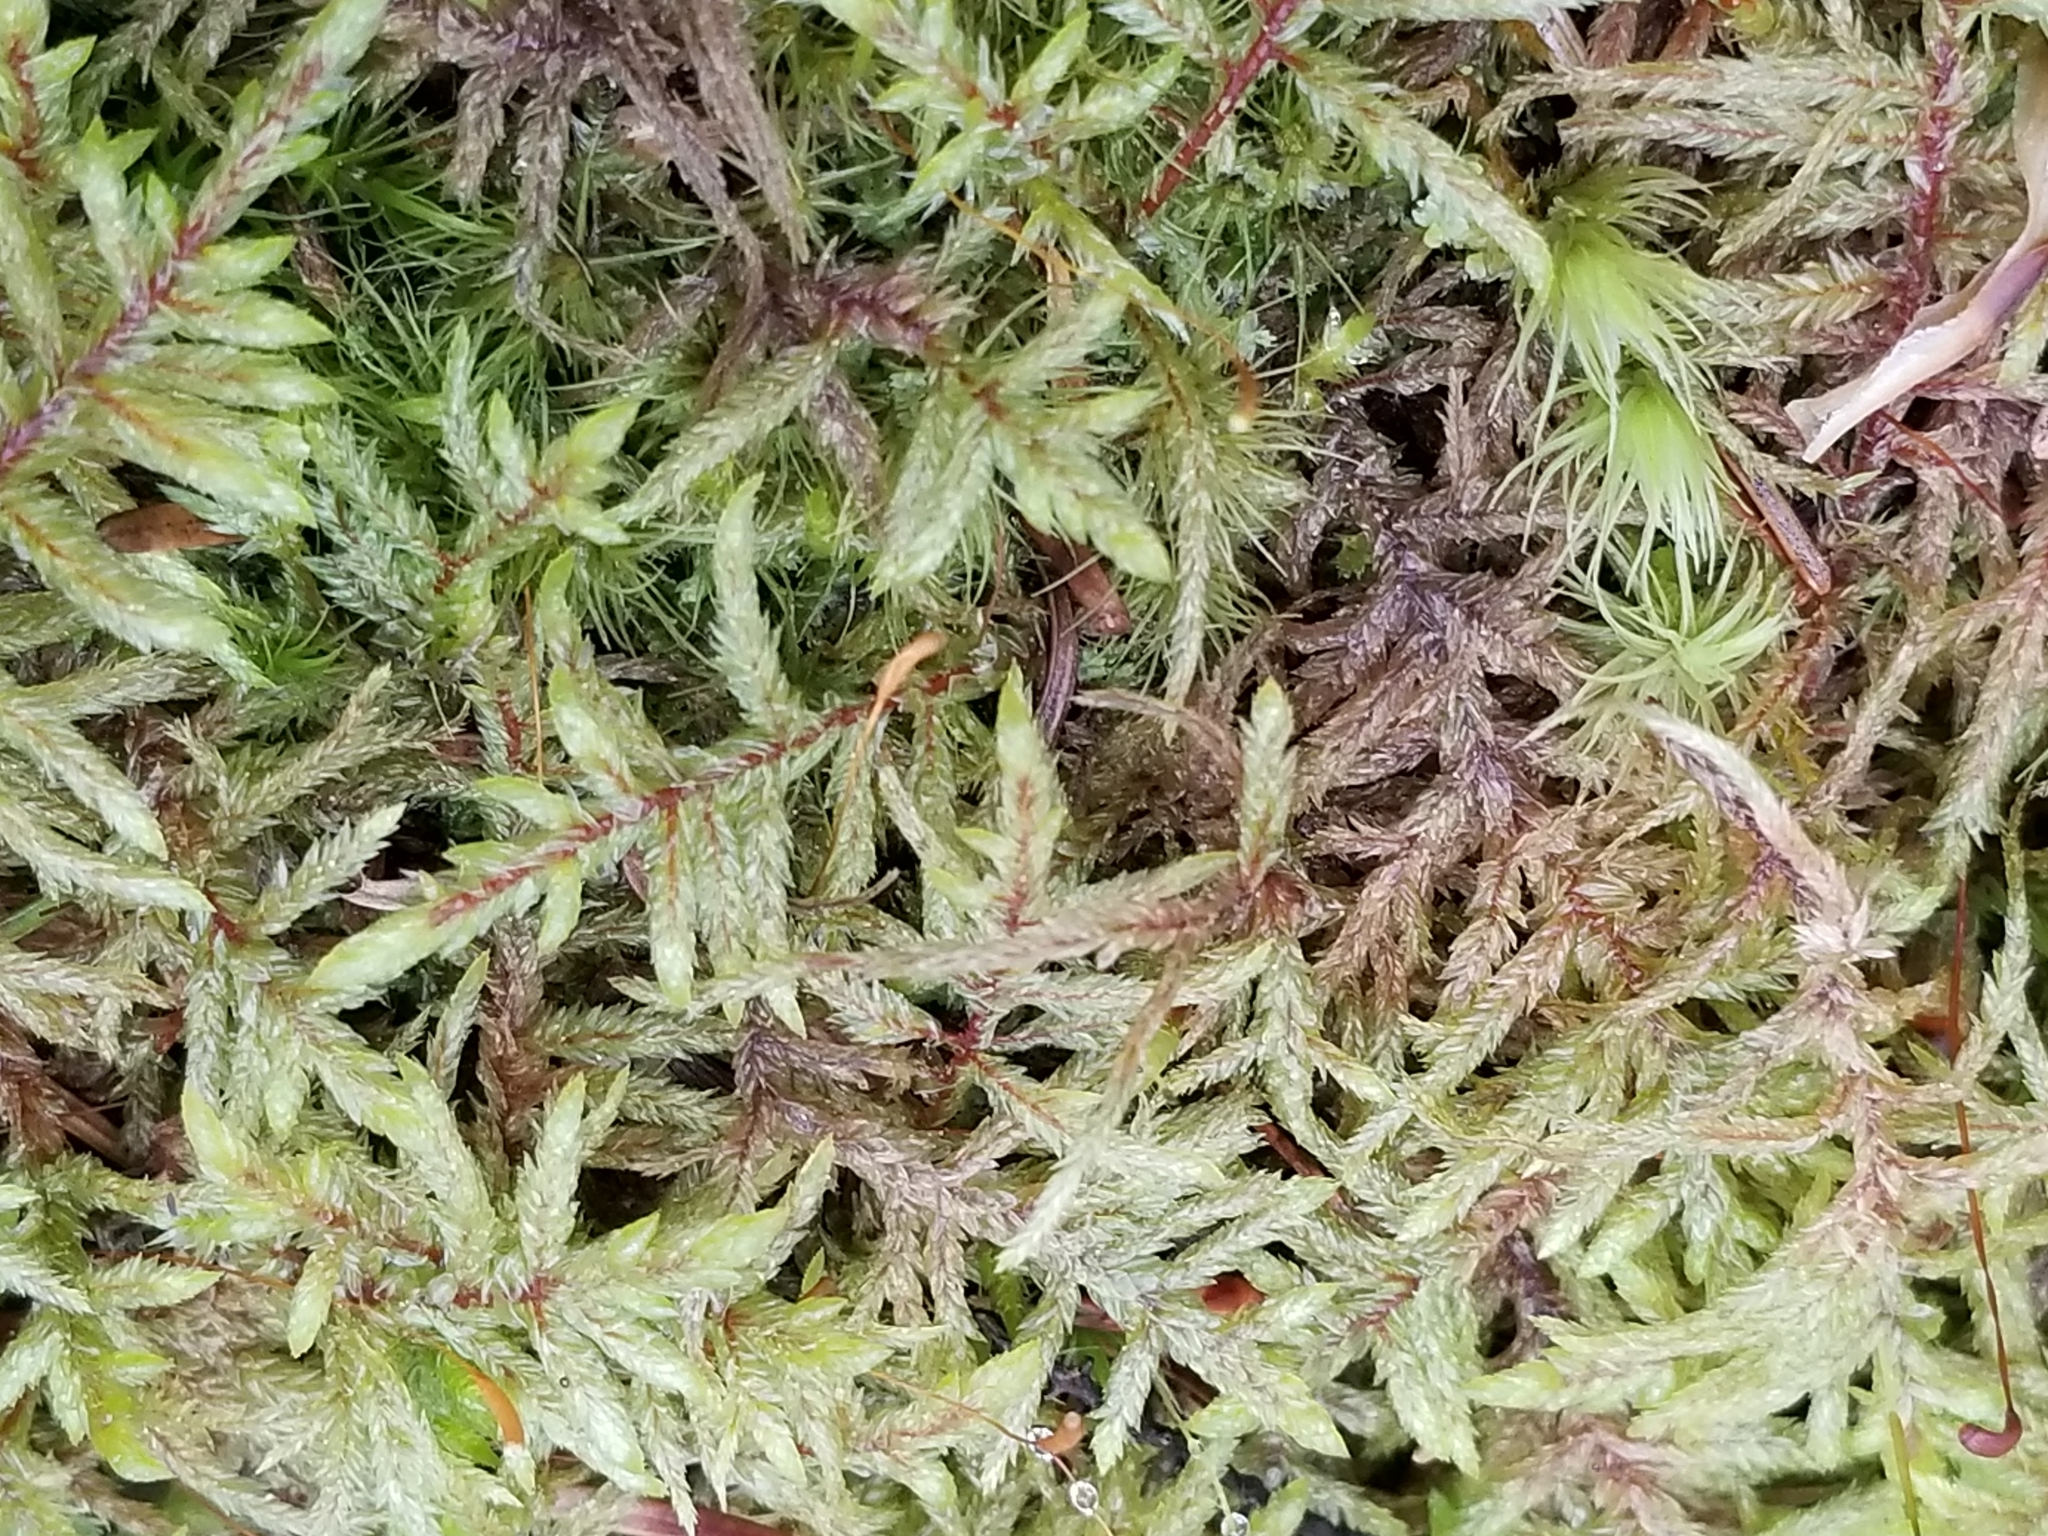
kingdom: Plantae
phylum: Bryophyta
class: Bryopsida
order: Hypnales
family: Hylocomiaceae
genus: Pleurozium
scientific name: Pleurozium schreberi
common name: Red-stemmed feather moss
